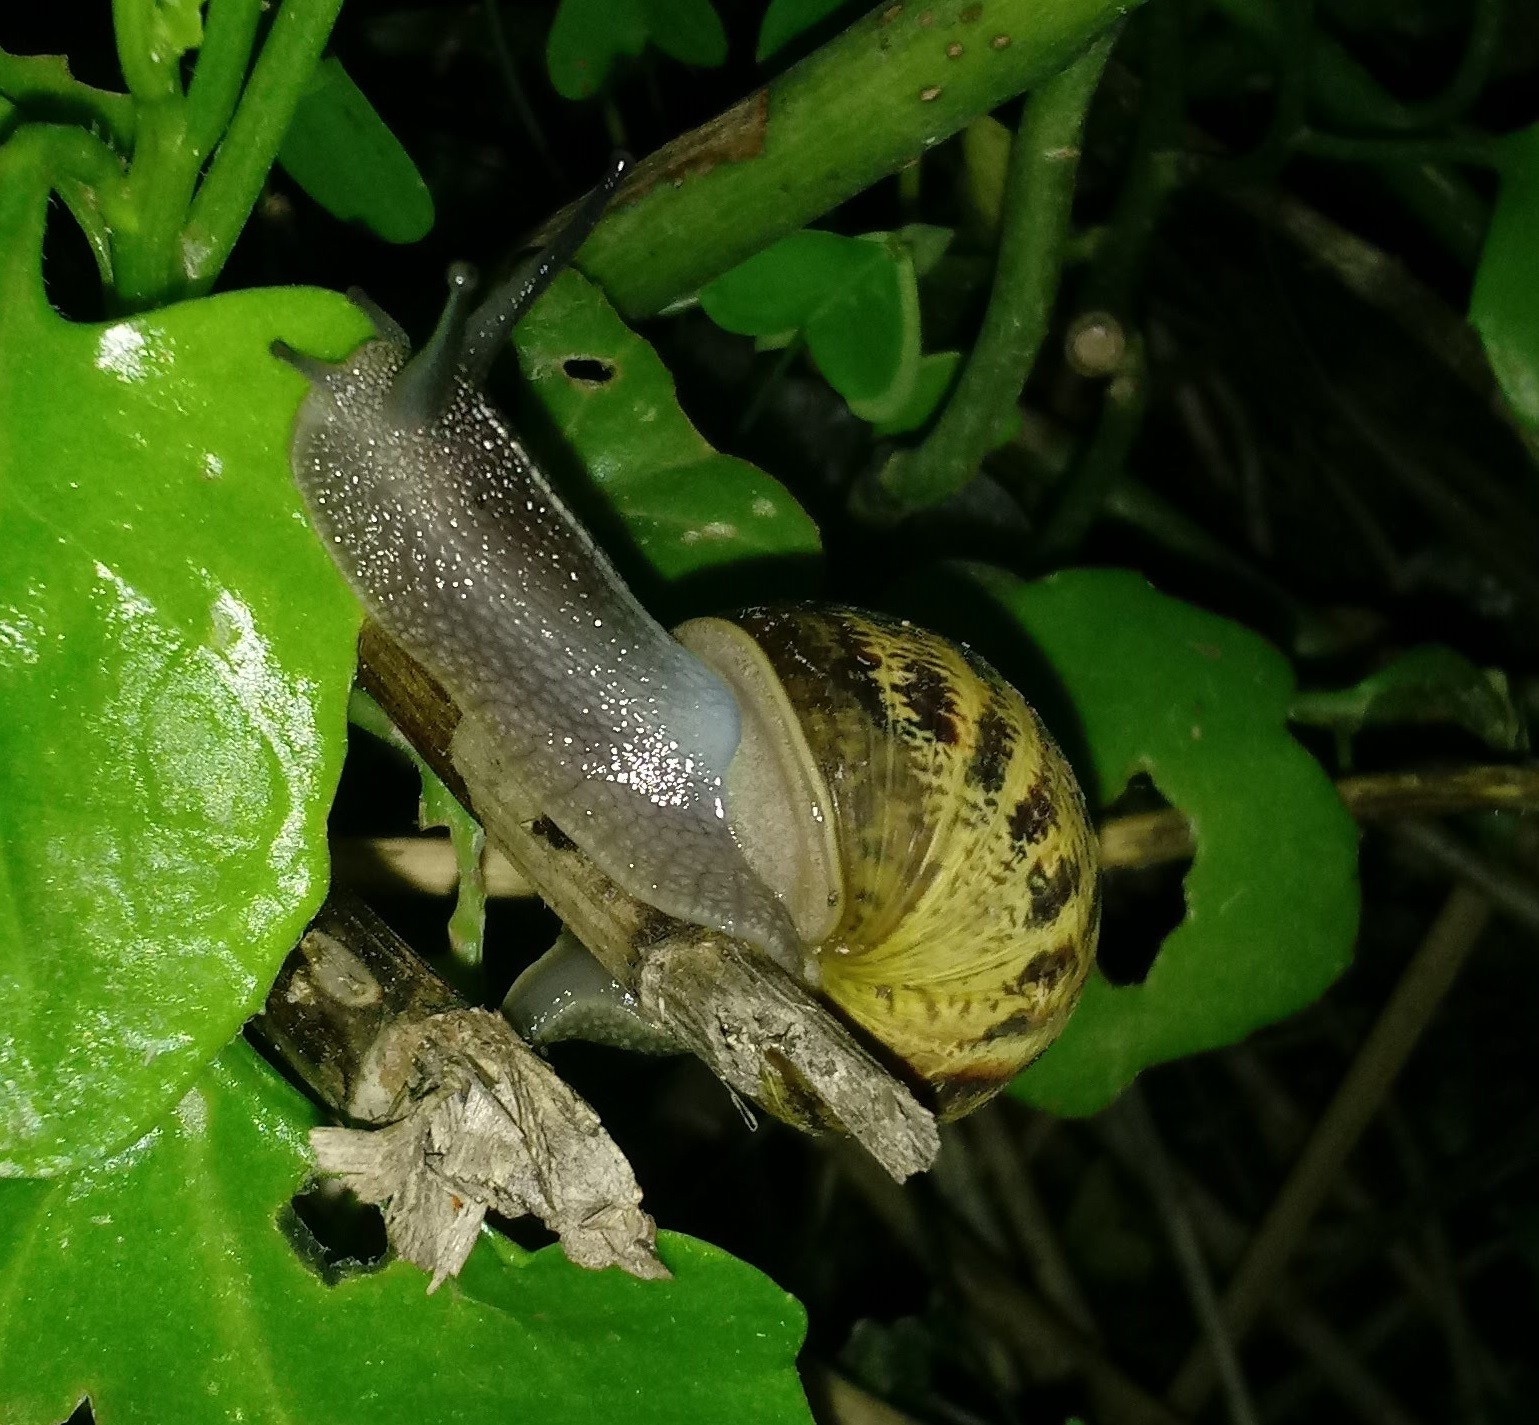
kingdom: Animalia
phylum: Mollusca
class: Gastropoda
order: Stylommatophora
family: Helicidae
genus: Cornu
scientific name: Cornu aspersum
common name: Brown garden snail
